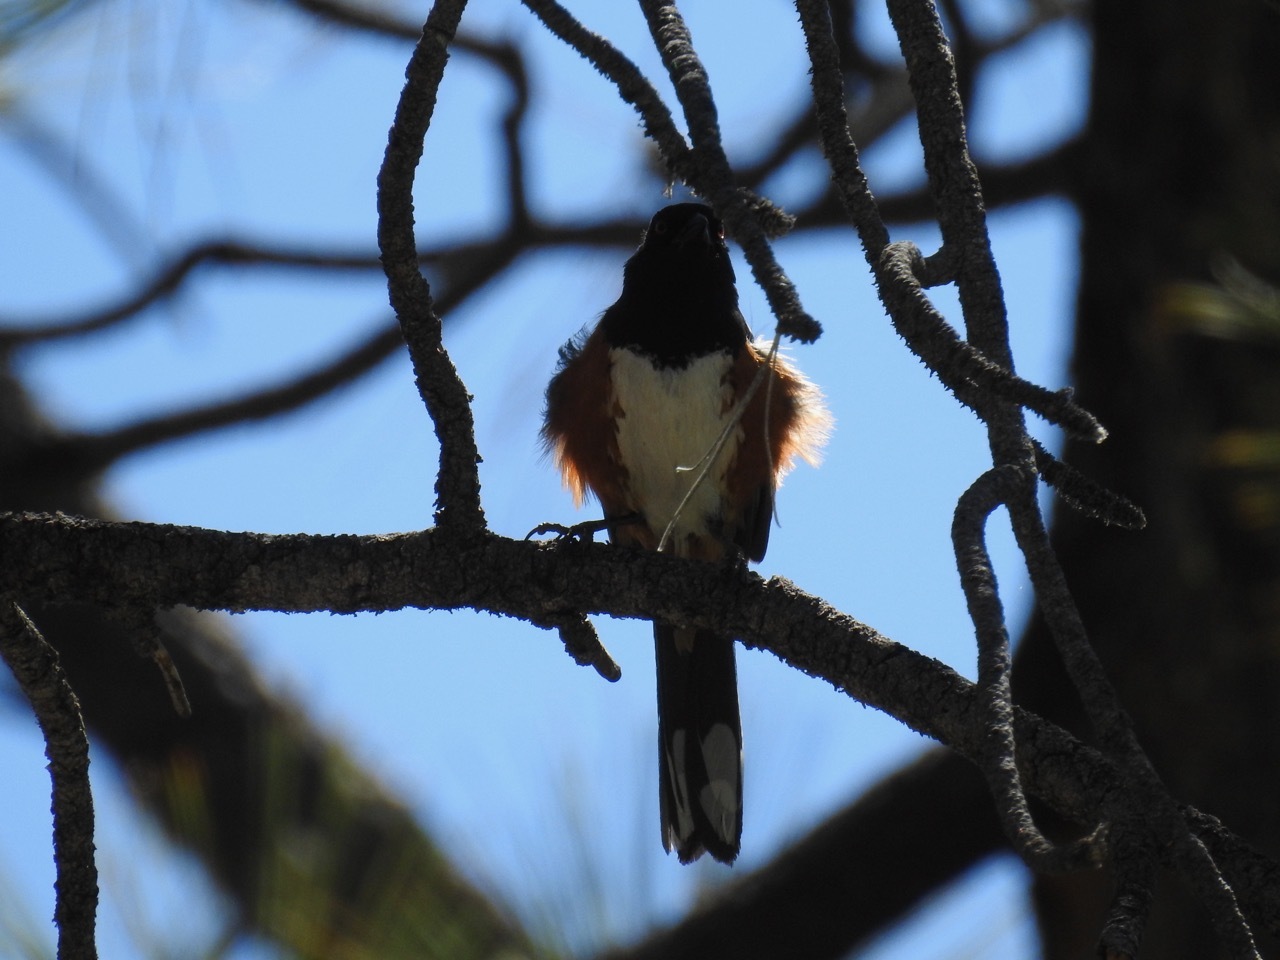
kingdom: Animalia
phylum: Chordata
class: Aves
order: Passeriformes
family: Passerellidae
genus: Pipilo
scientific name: Pipilo maculatus
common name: Spotted towhee
